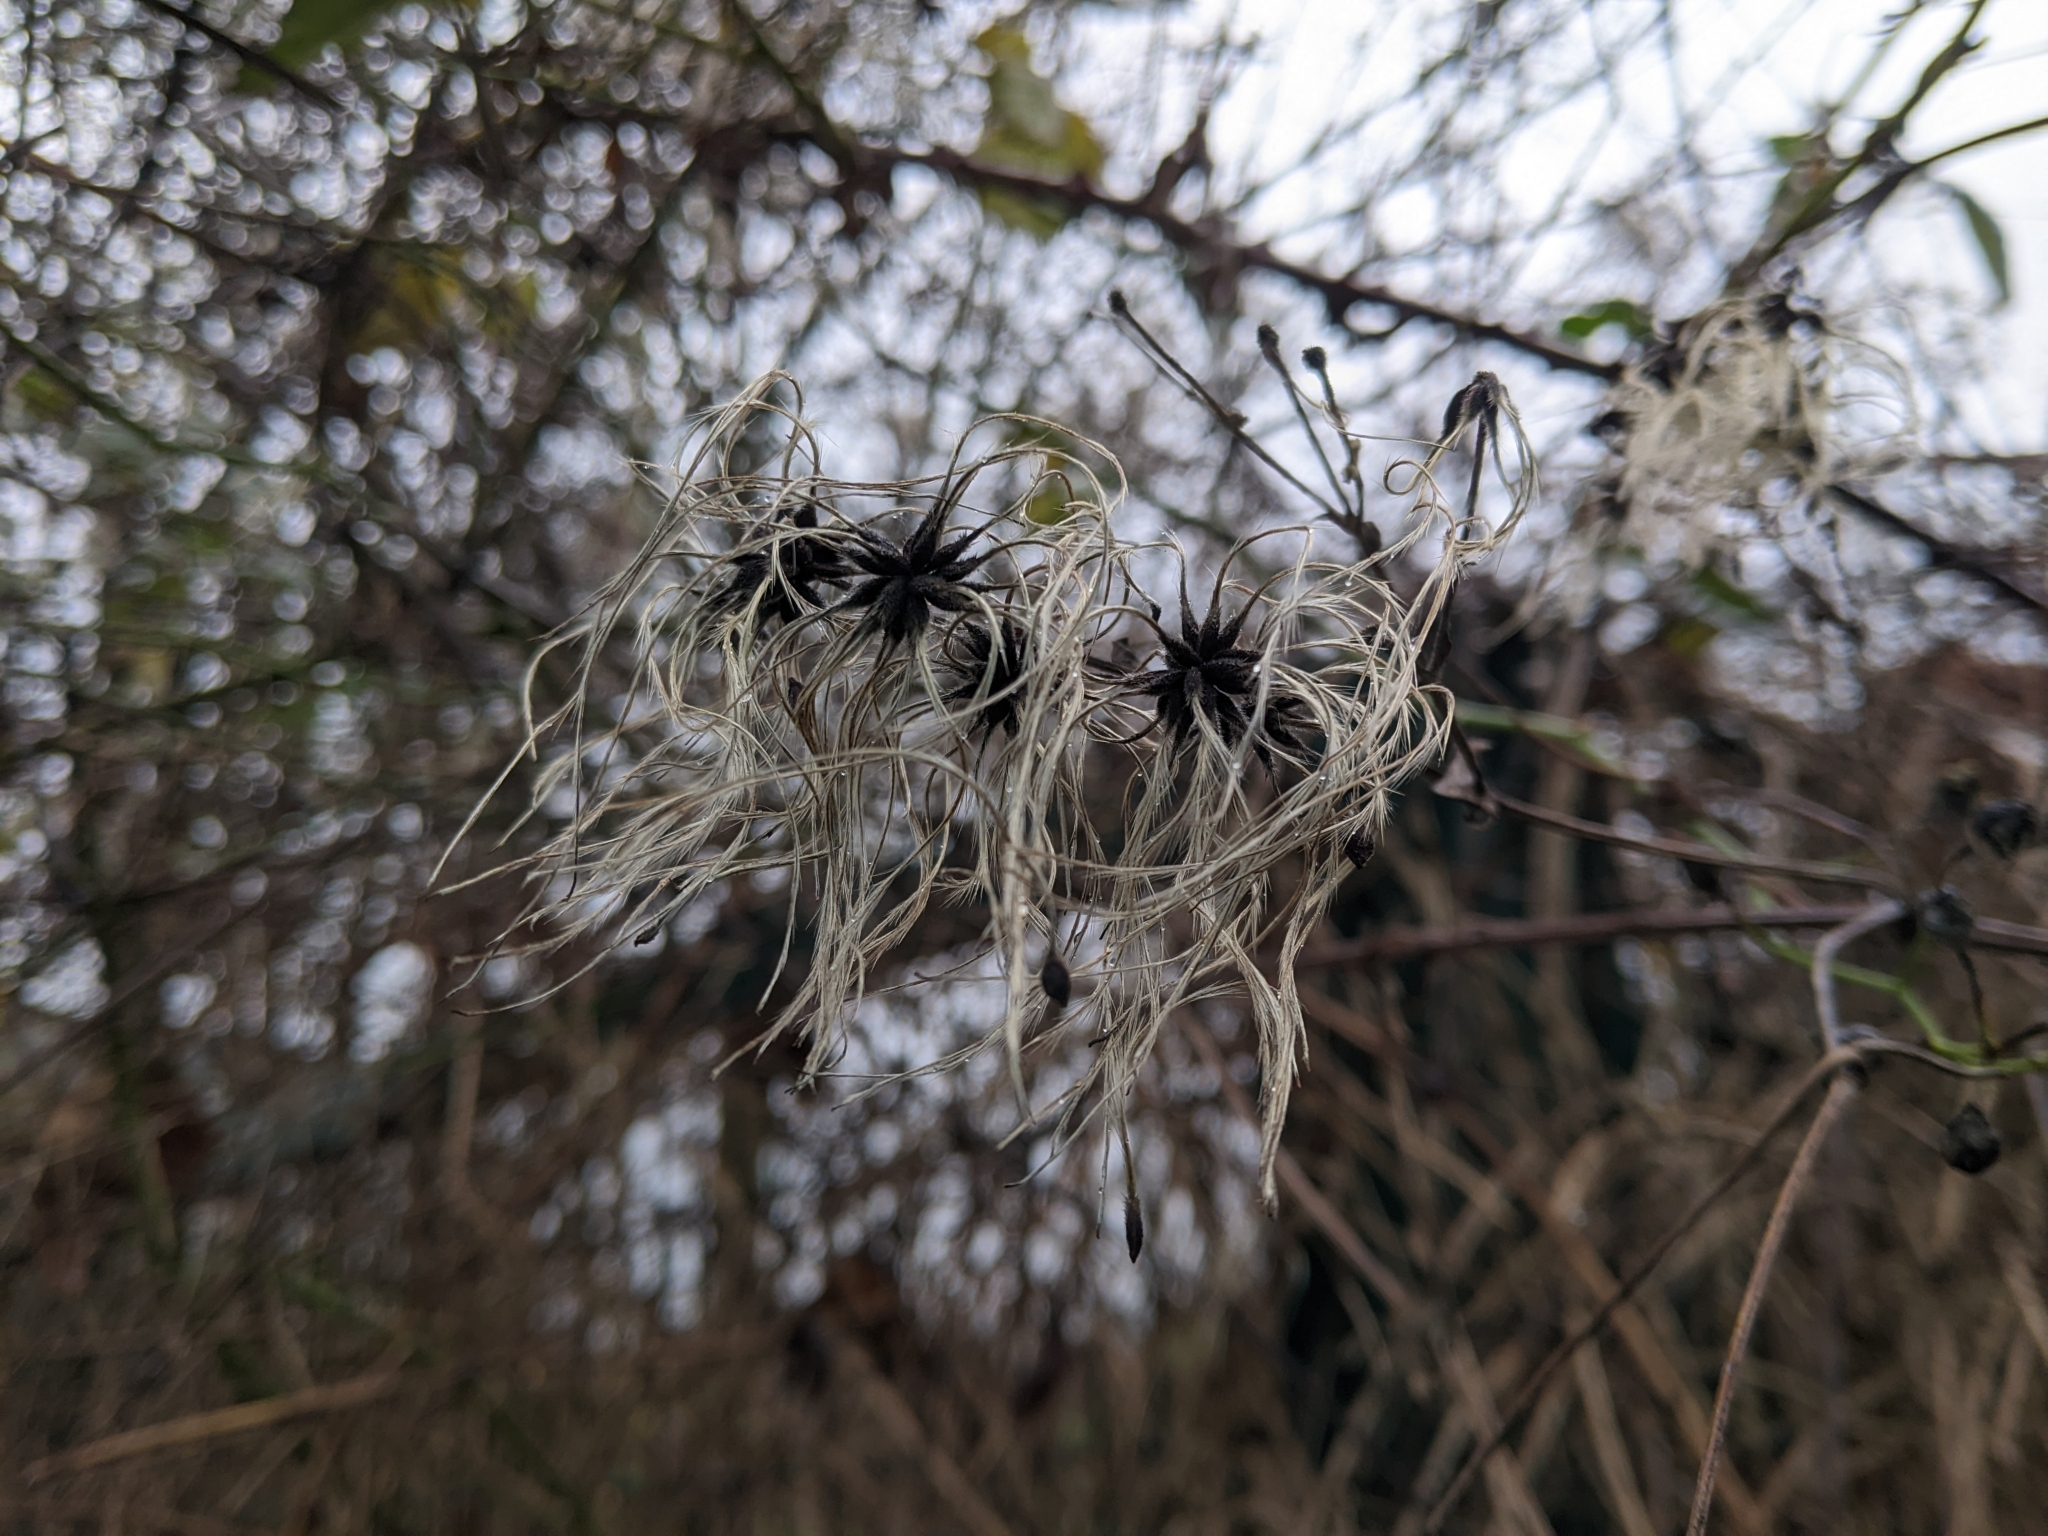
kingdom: Plantae
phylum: Tracheophyta
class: Magnoliopsida
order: Ranunculales
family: Ranunculaceae
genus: Clematis
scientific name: Clematis vitalba
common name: Evergreen clematis
